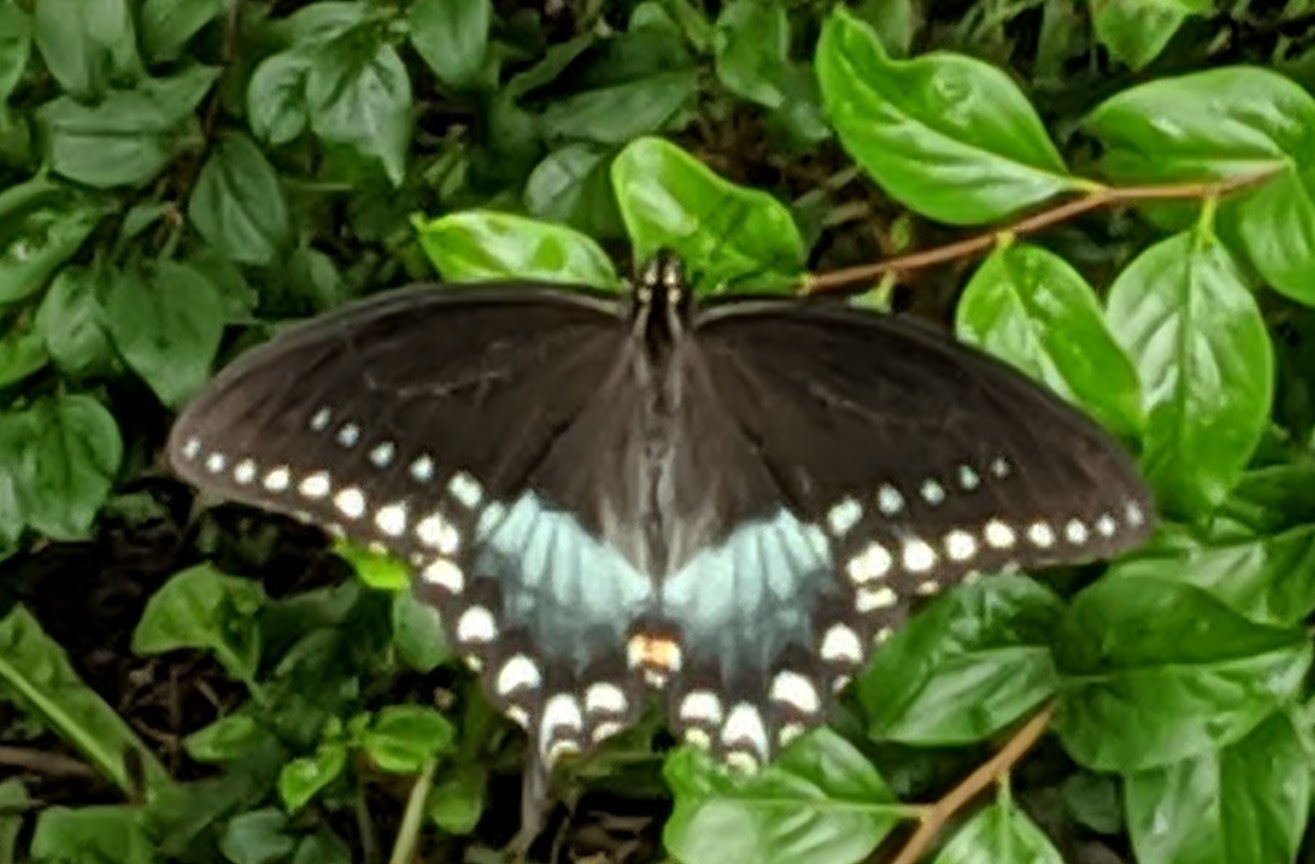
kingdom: Animalia
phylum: Arthropoda
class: Insecta
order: Lepidoptera
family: Papilionidae
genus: Papilio
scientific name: Papilio troilus
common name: Spicebush swallowtail
